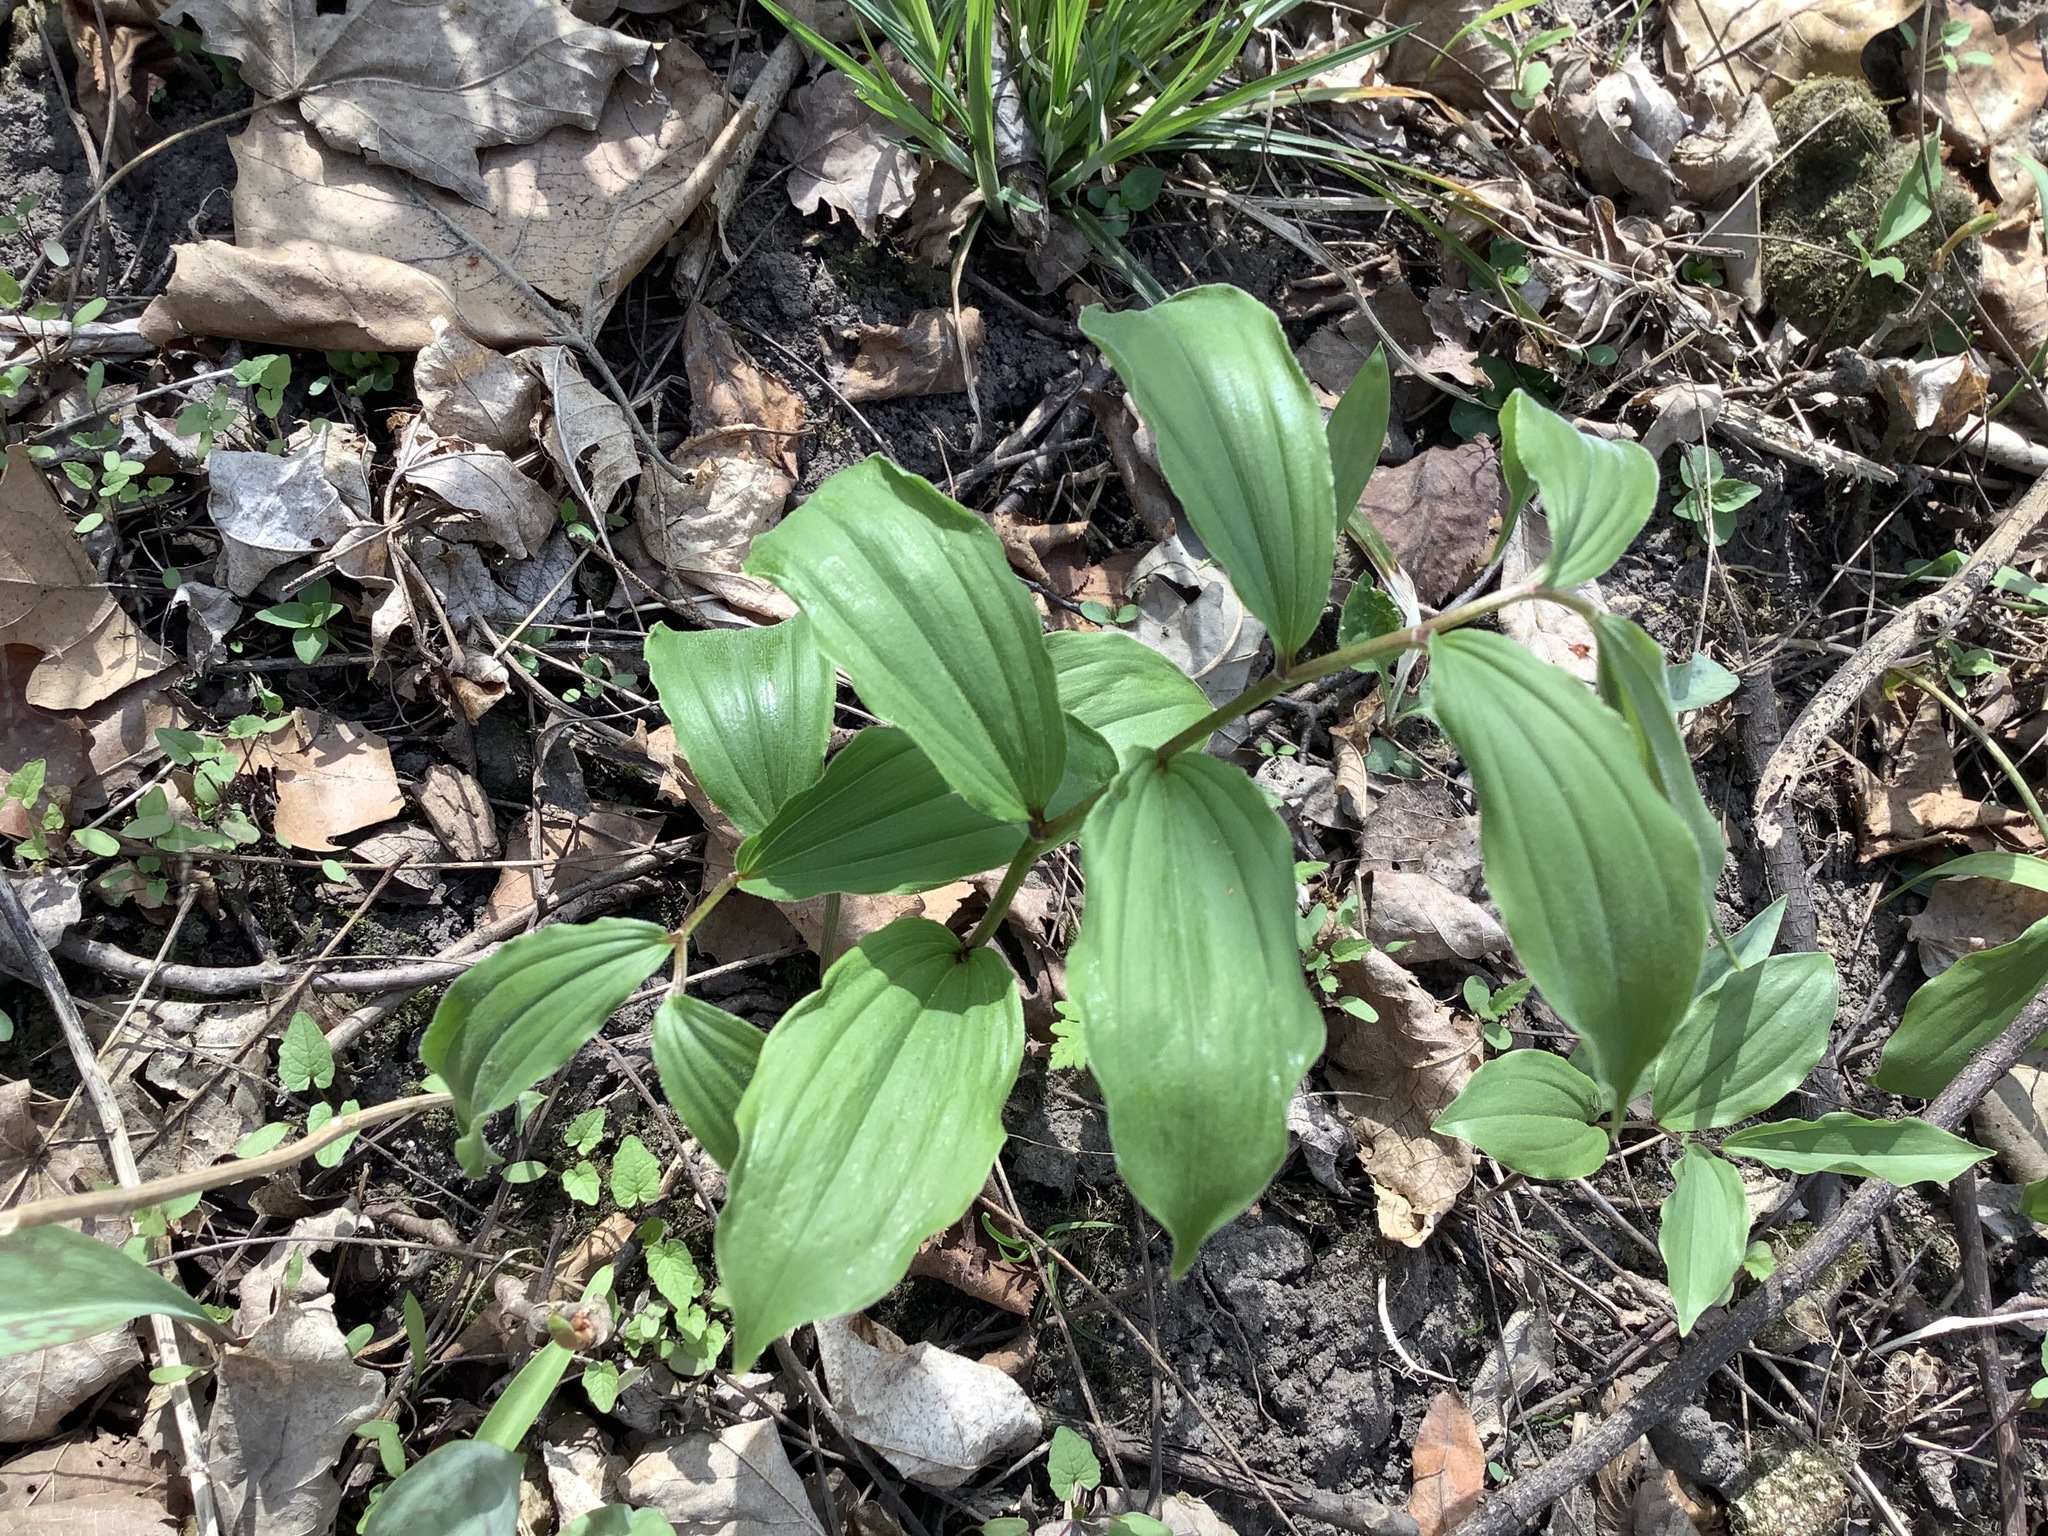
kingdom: Plantae
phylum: Tracheophyta
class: Liliopsida
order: Asparagales
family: Asparagaceae
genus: Maianthemum
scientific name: Maianthemum racemosum
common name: False spikenard
